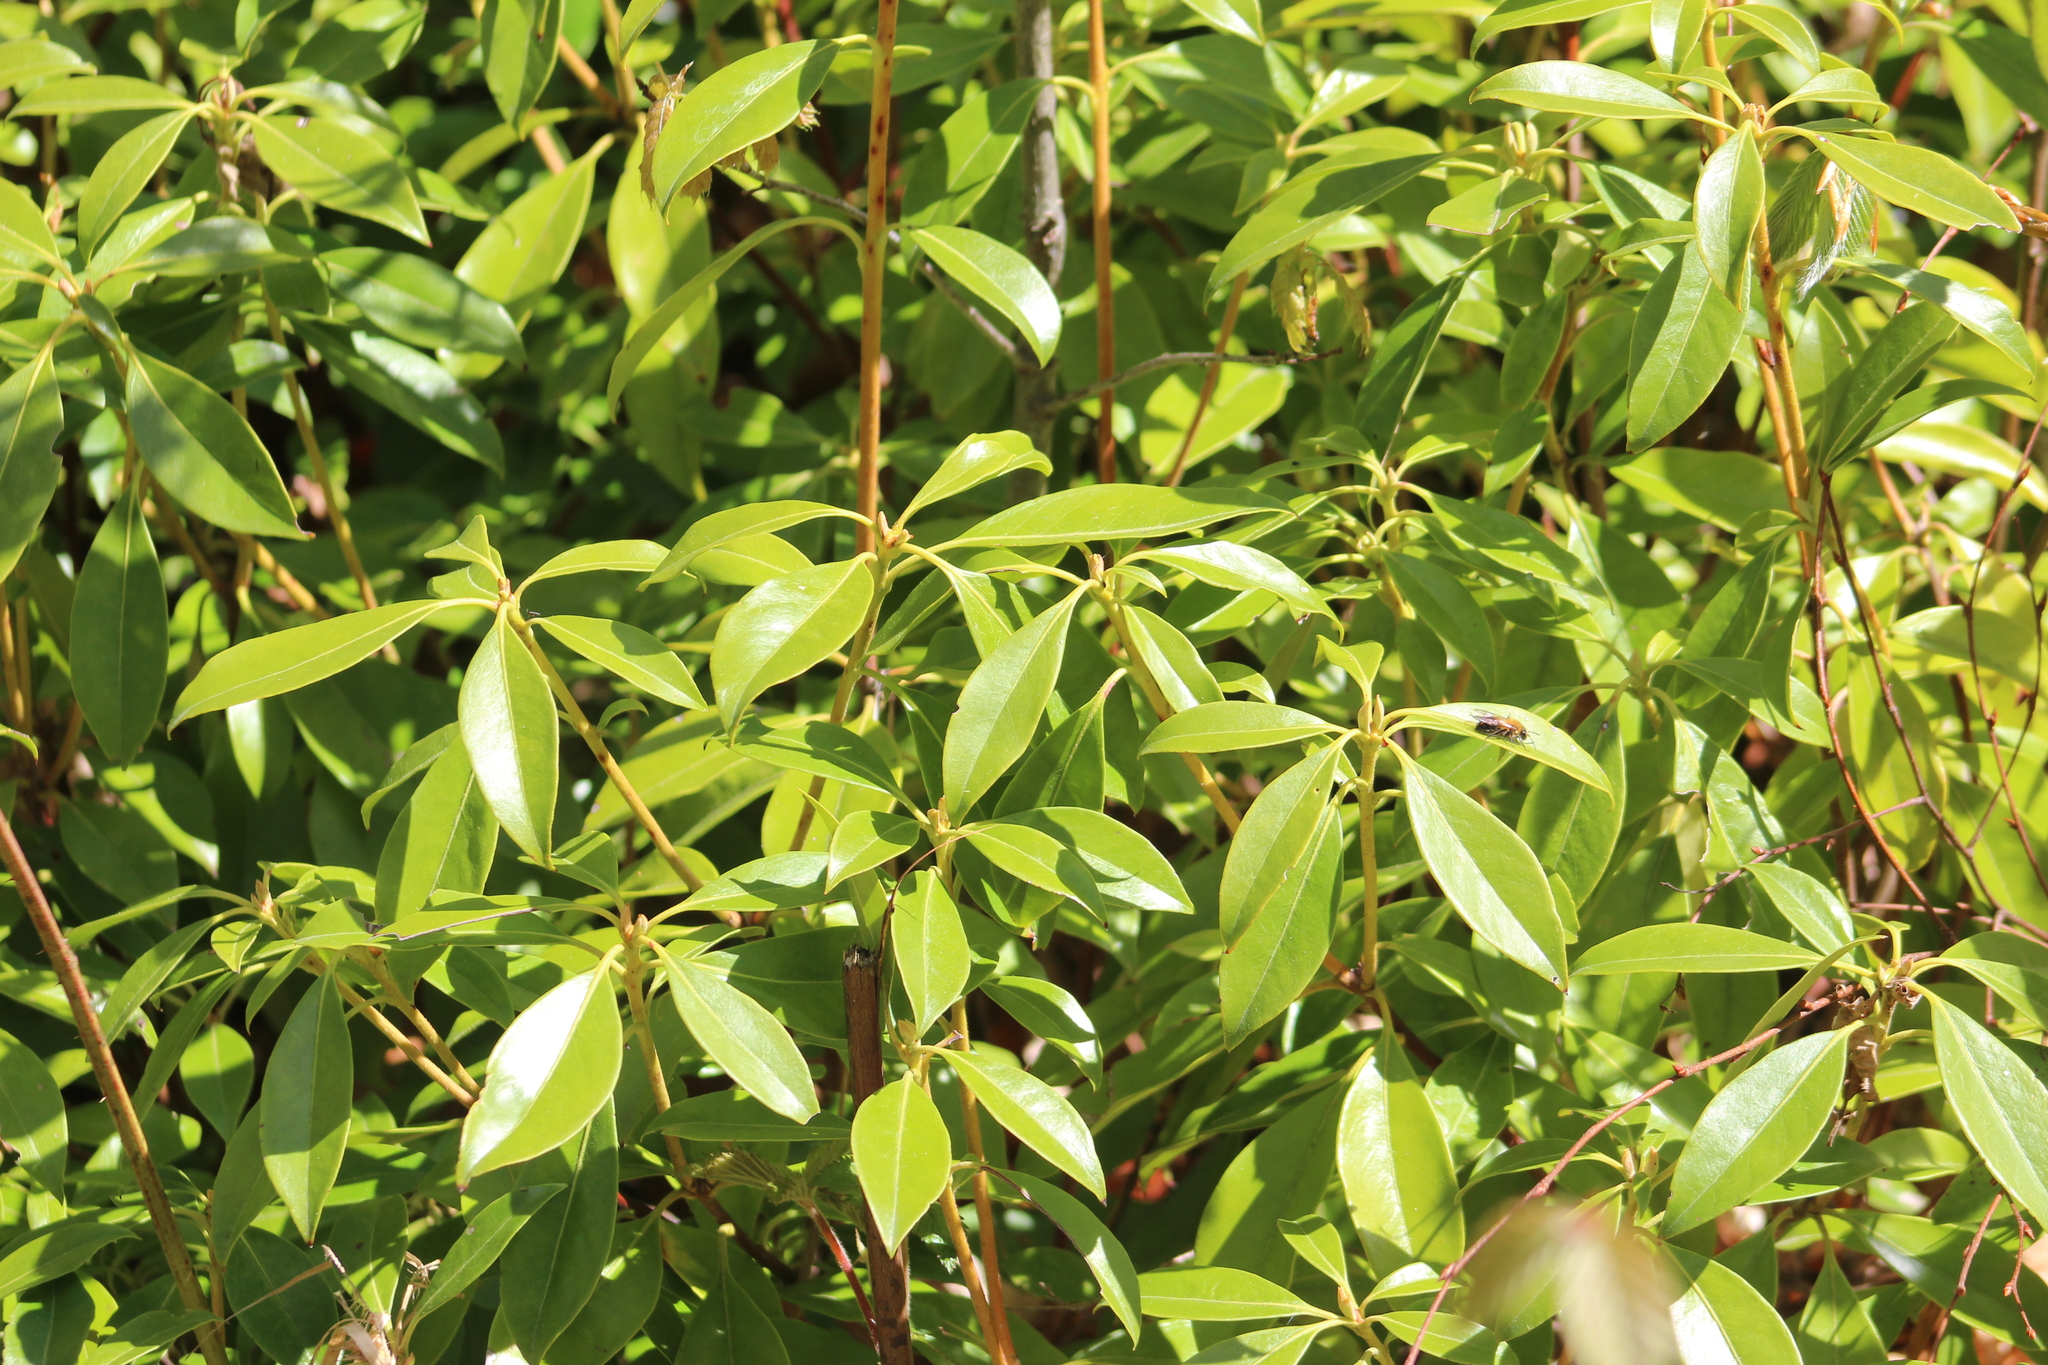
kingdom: Plantae
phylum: Tracheophyta
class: Magnoliopsida
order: Ericales
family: Ericaceae
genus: Kalmia
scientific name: Kalmia latifolia
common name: Mountain-laurel
